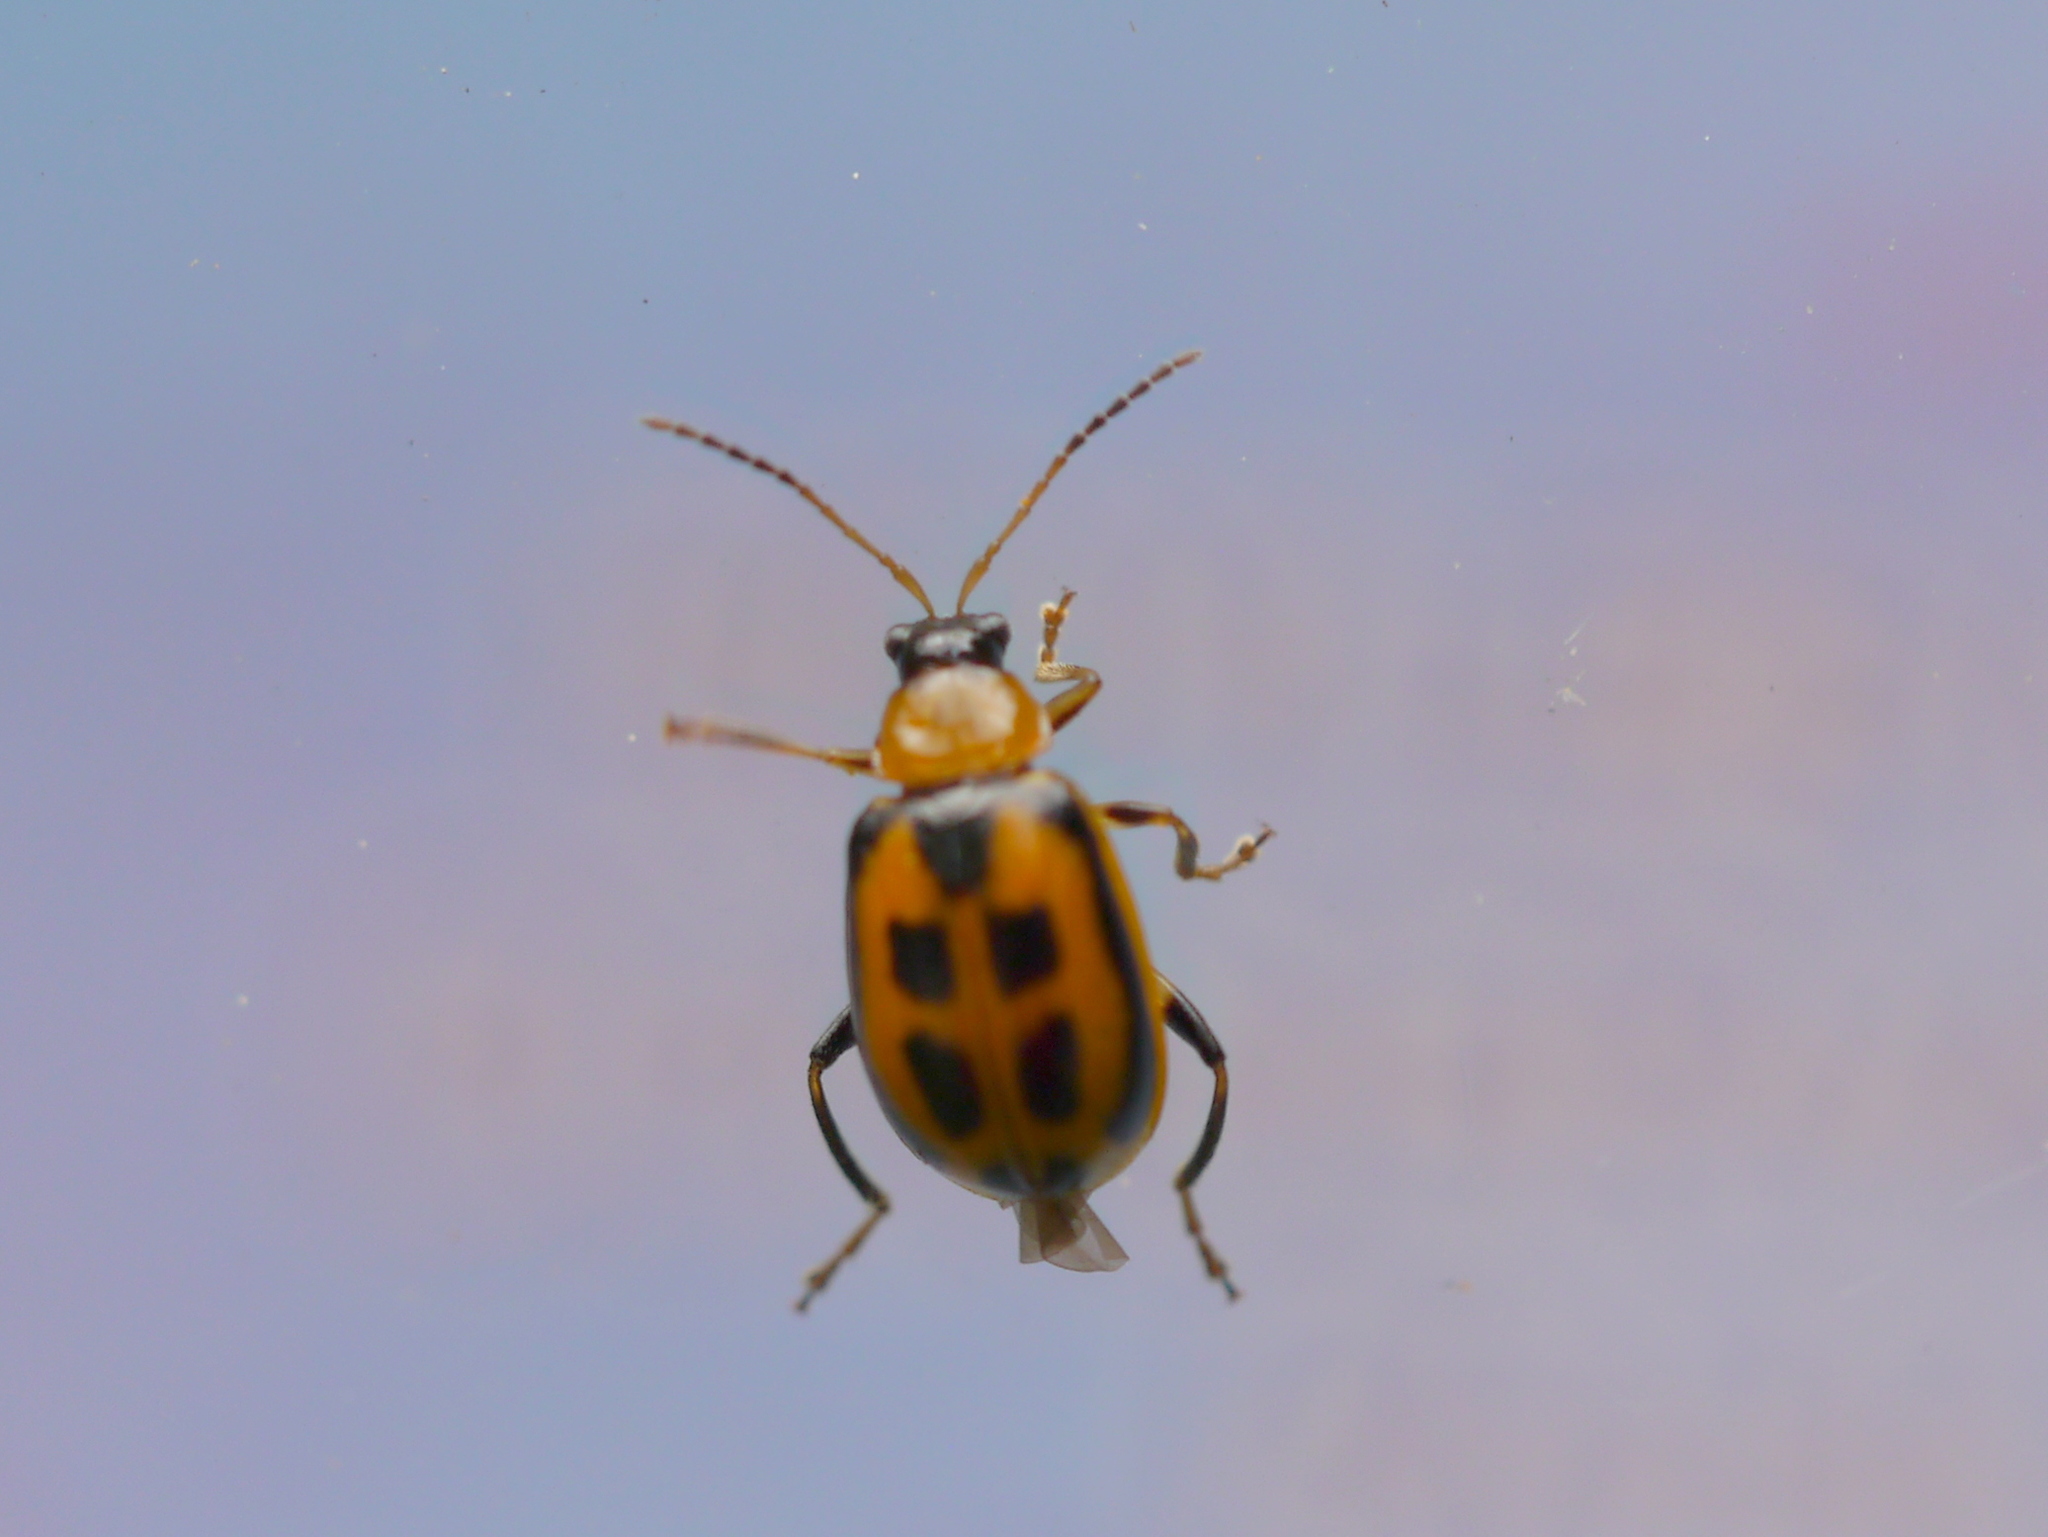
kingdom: Animalia
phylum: Arthropoda
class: Insecta
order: Coleoptera
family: Chrysomelidae
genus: Cerotoma
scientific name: Cerotoma trifurcata
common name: Bean leaf beetle
